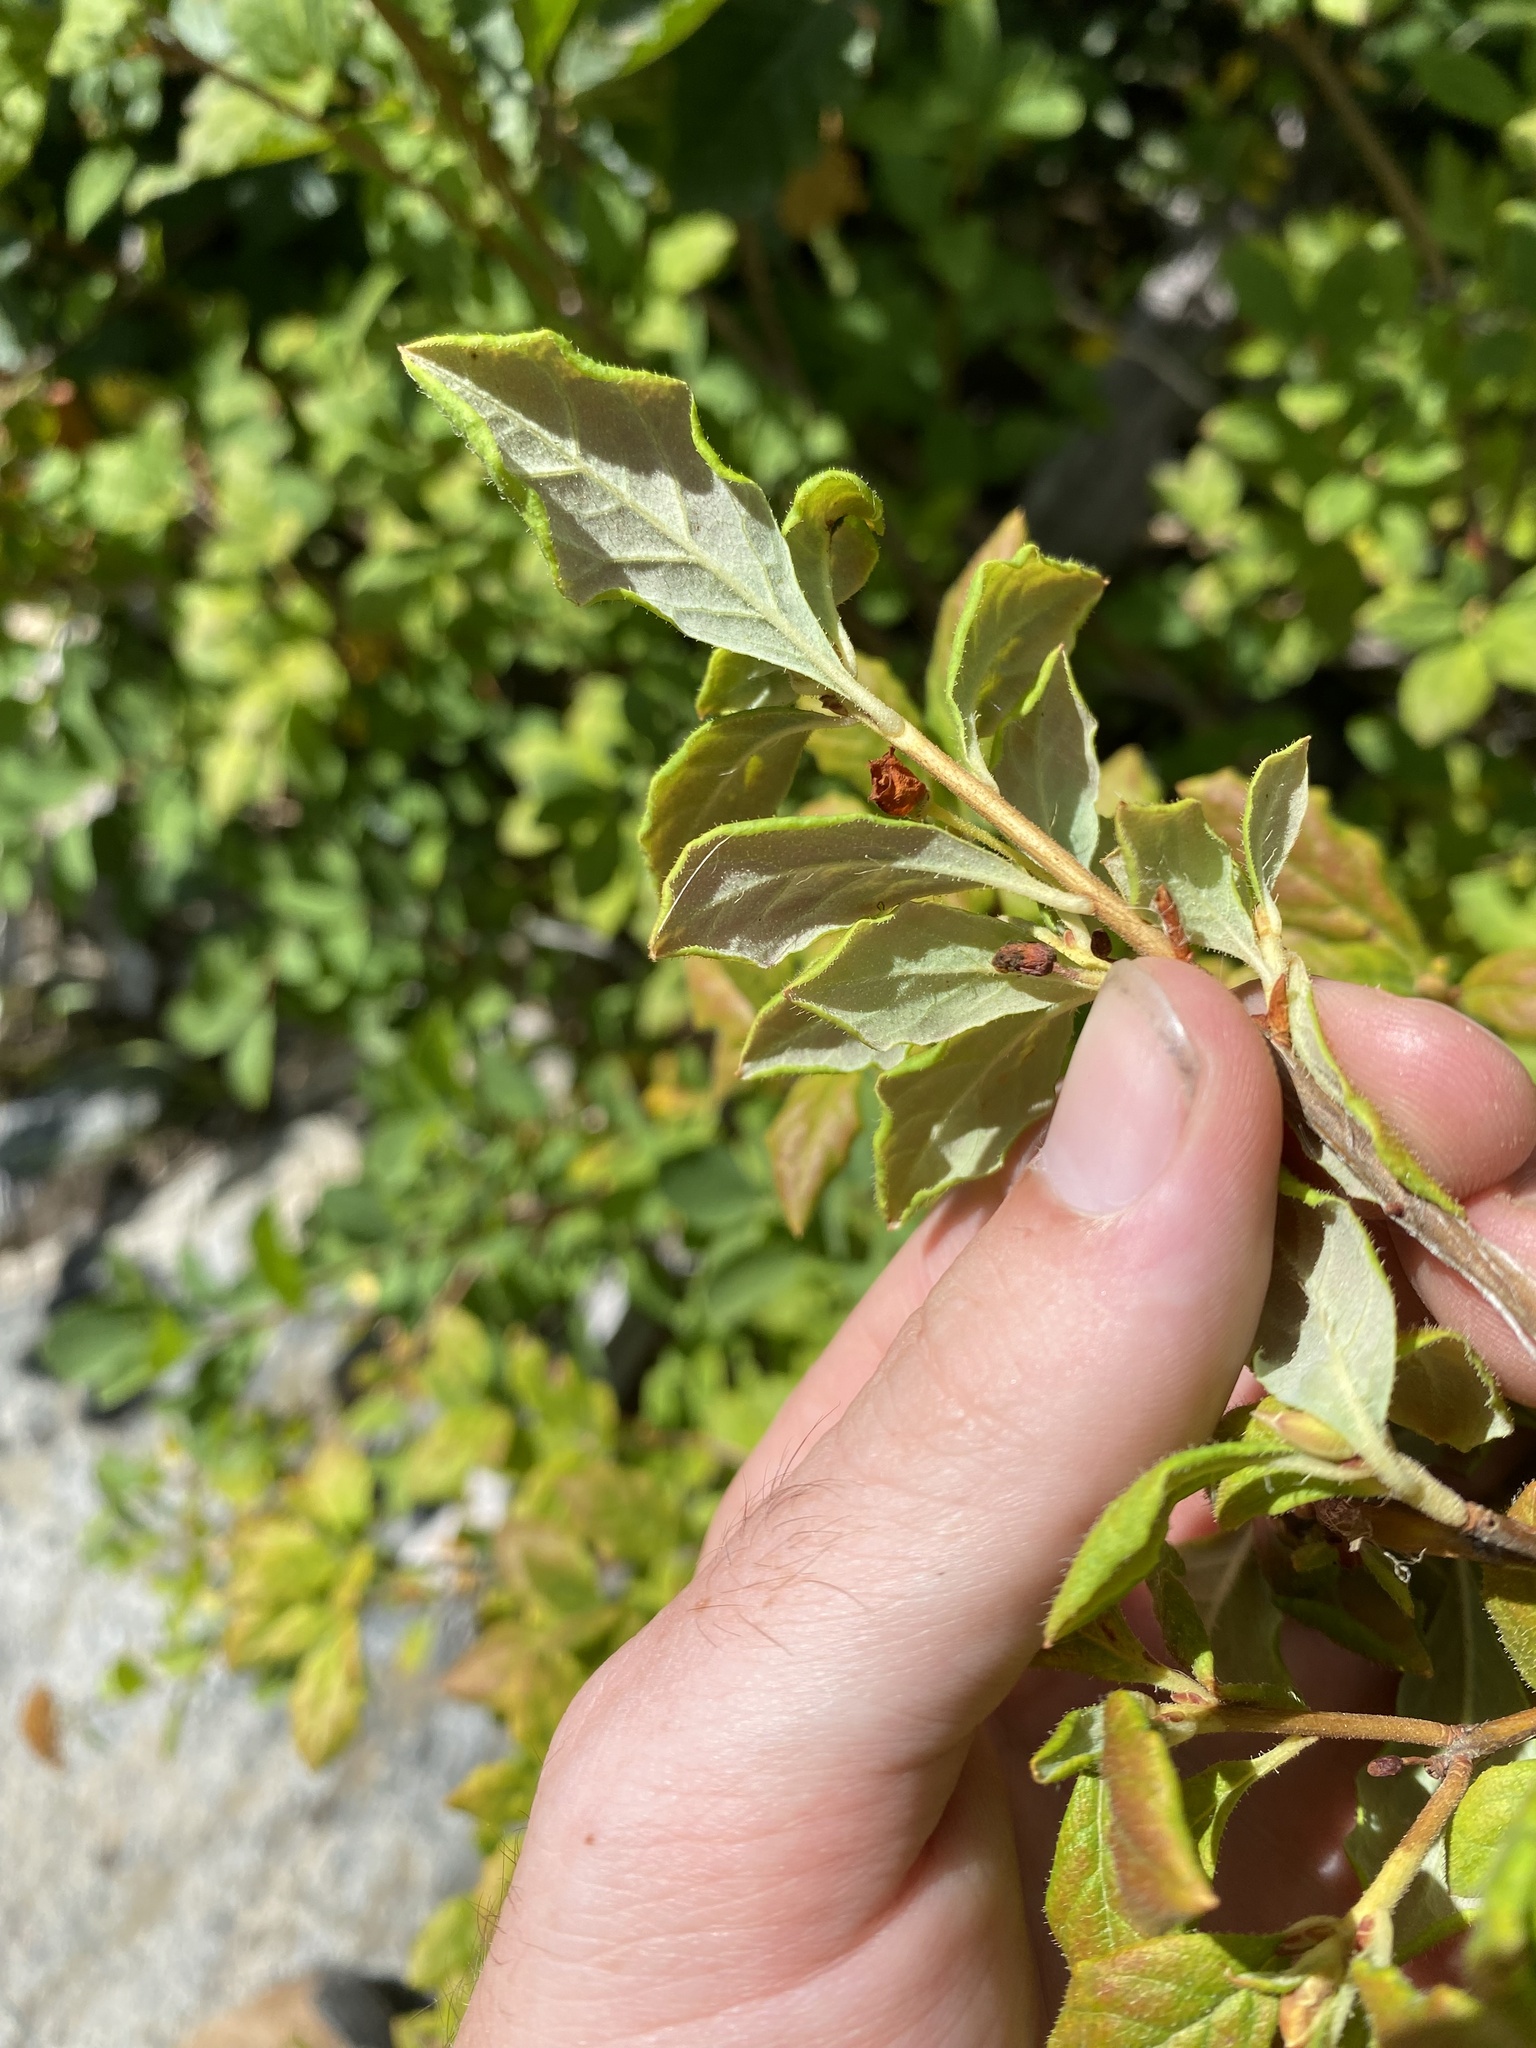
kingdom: Plantae
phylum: Tracheophyta
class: Magnoliopsida
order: Ericales
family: Ericaceae
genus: Rhododendron
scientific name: Rhododendron menziesii
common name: Pacific menziesia
